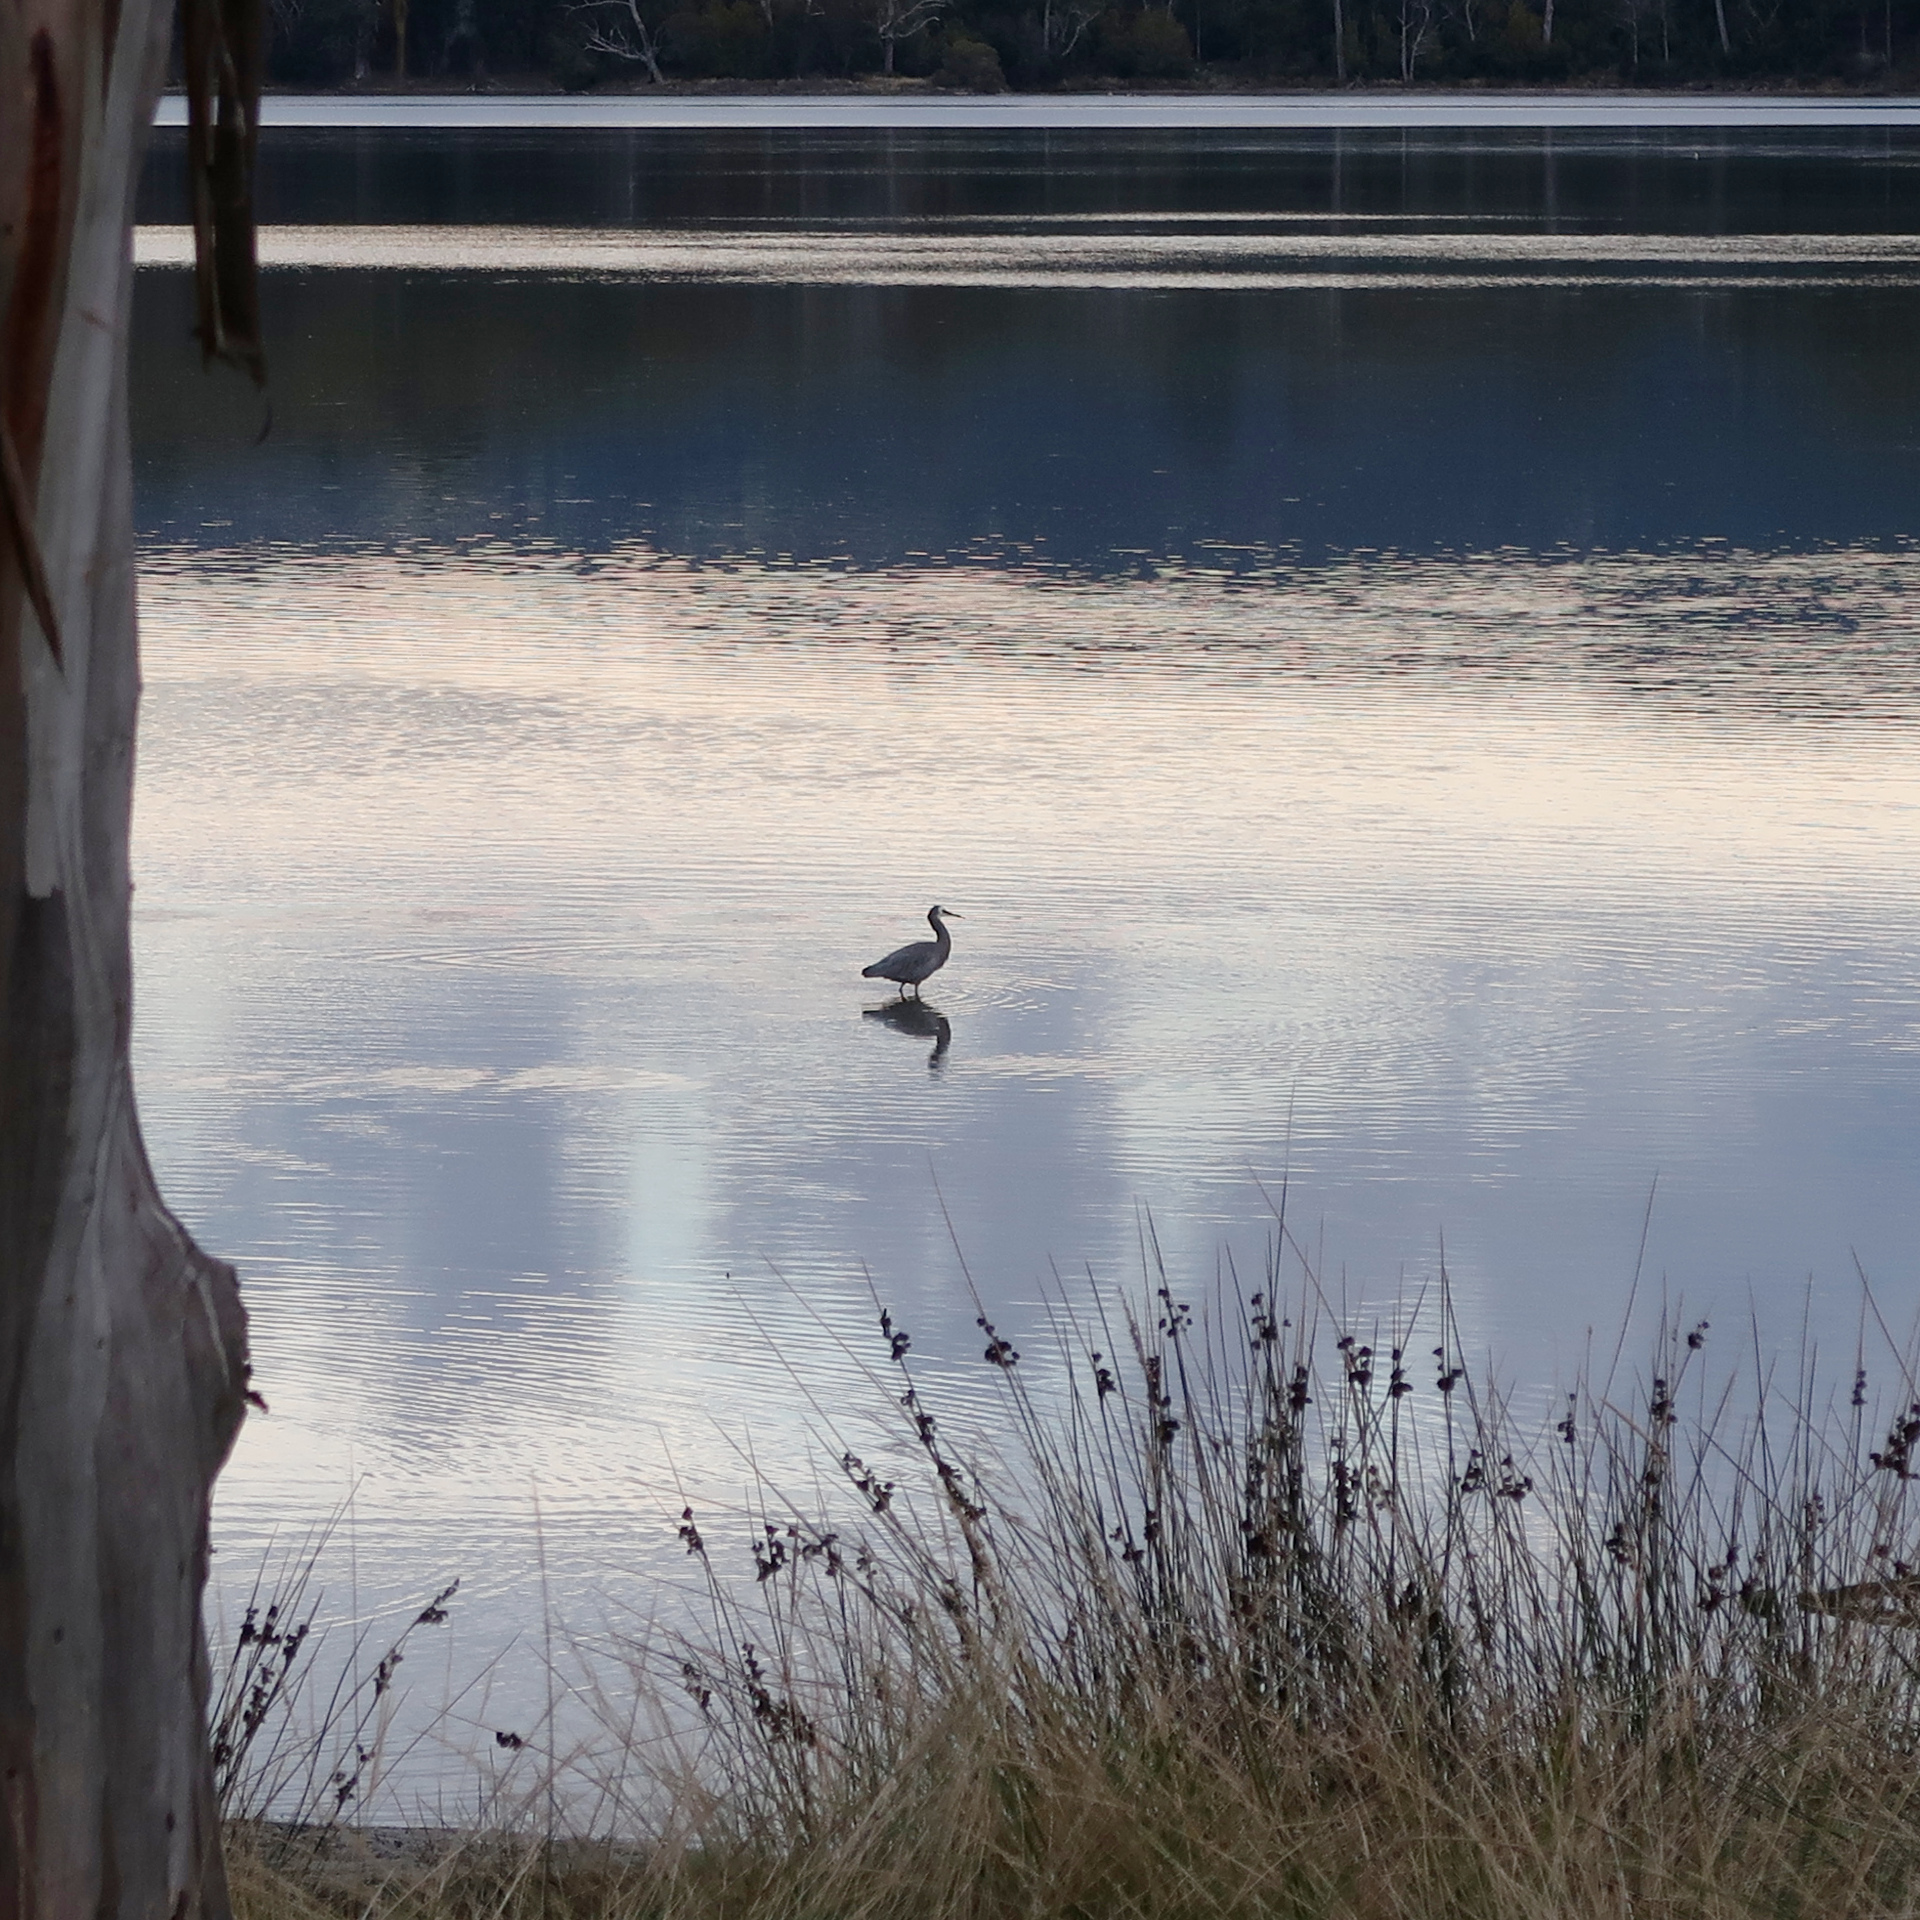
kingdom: Animalia
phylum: Chordata
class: Aves
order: Pelecaniformes
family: Ardeidae
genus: Egretta
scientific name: Egretta novaehollandiae
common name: White-faced heron
